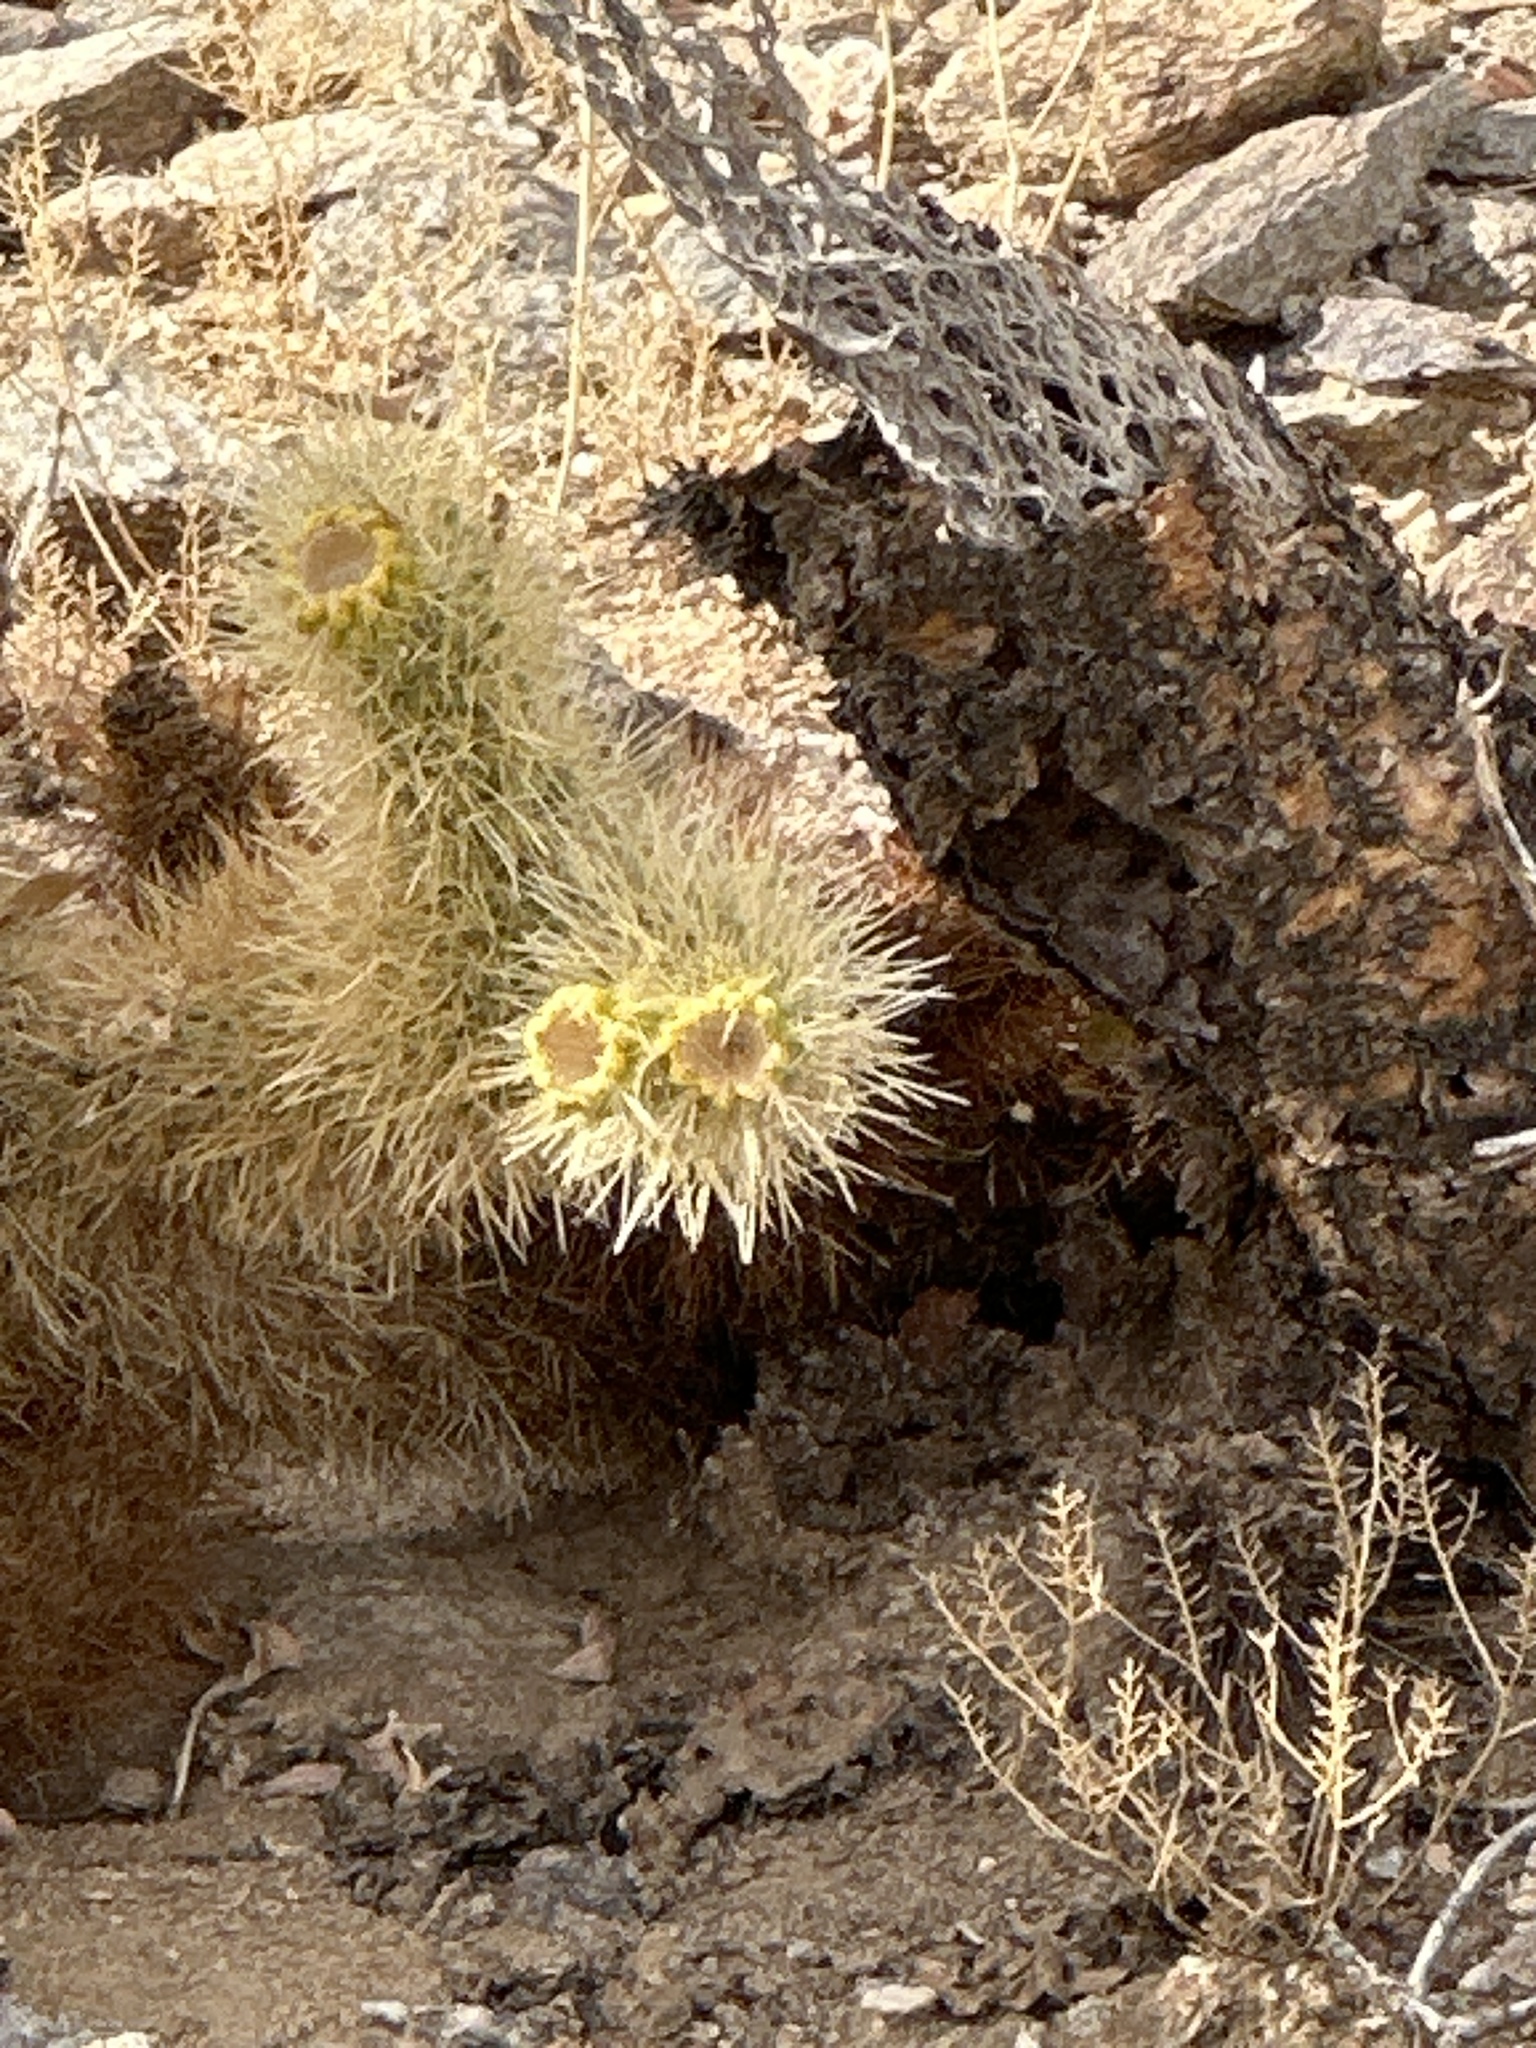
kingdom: Plantae
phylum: Tracheophyta
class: Magnoliopsida
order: Caryophyllales
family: Cactaceae
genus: Cylindropuntia
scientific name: Cylindropuntia fosbergii
